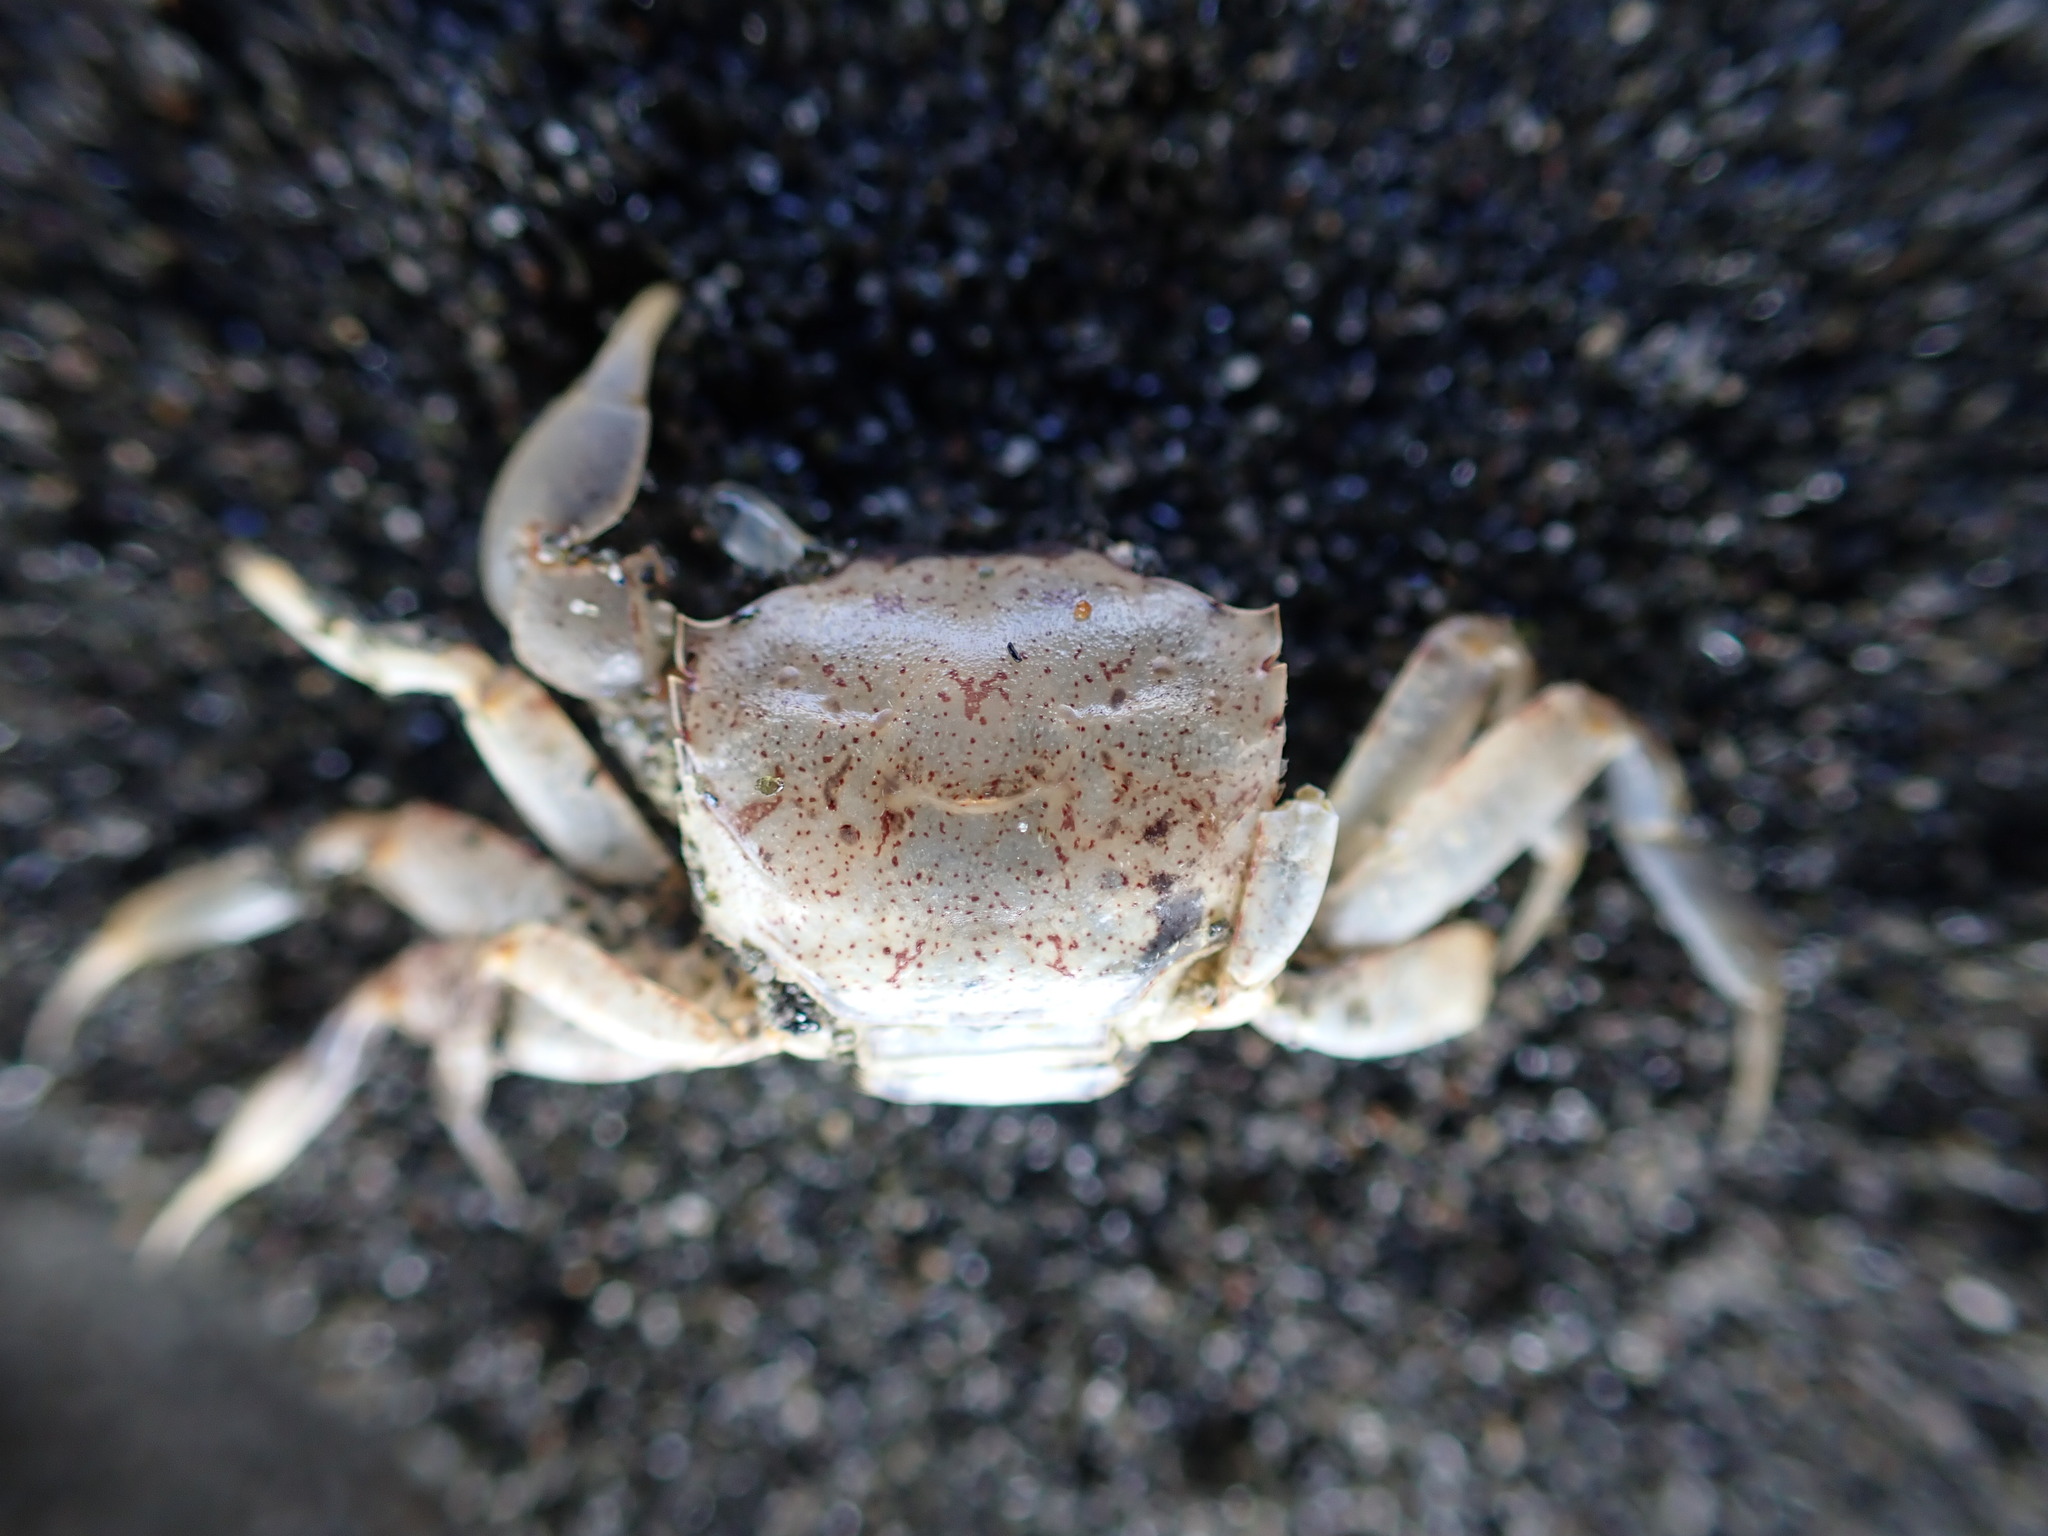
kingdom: Animalia
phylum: Arthropoda
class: Malacostraca
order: Decapoda
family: Varunidae
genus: Austrohelice
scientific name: Austrohelice crassa
